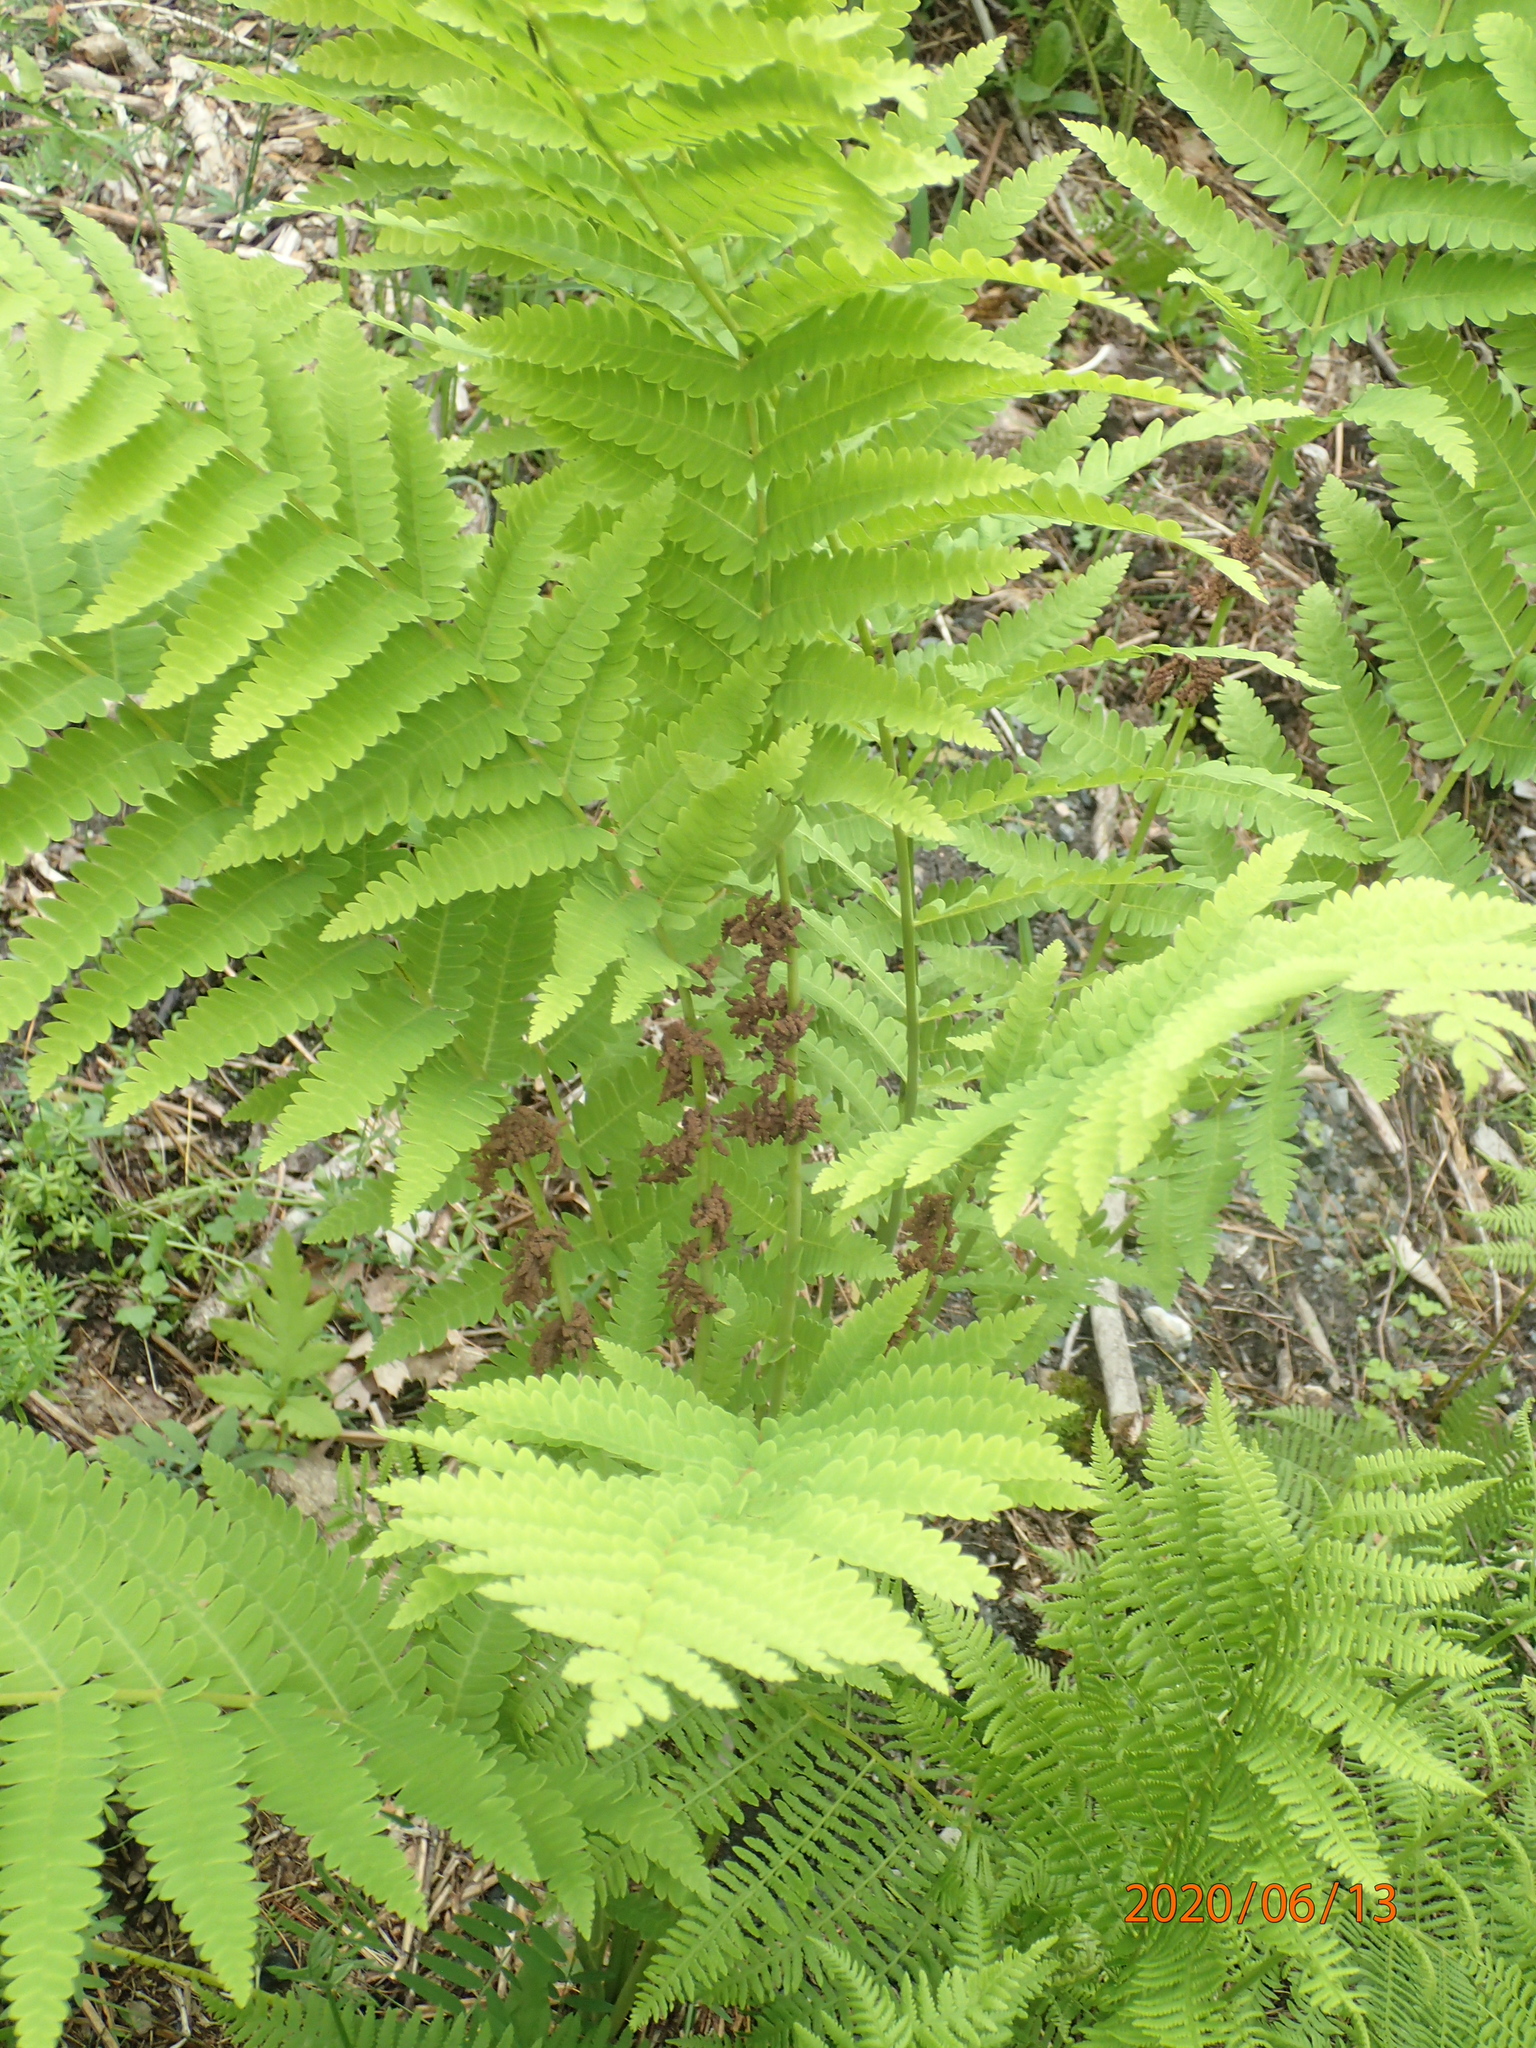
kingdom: Plantae
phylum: Tracheophyta
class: Polypodiopsida
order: Osmundales
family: Osmundaceae
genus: Claytosmunda
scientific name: Claytosmunda claytoniana
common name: Clayton's fern
